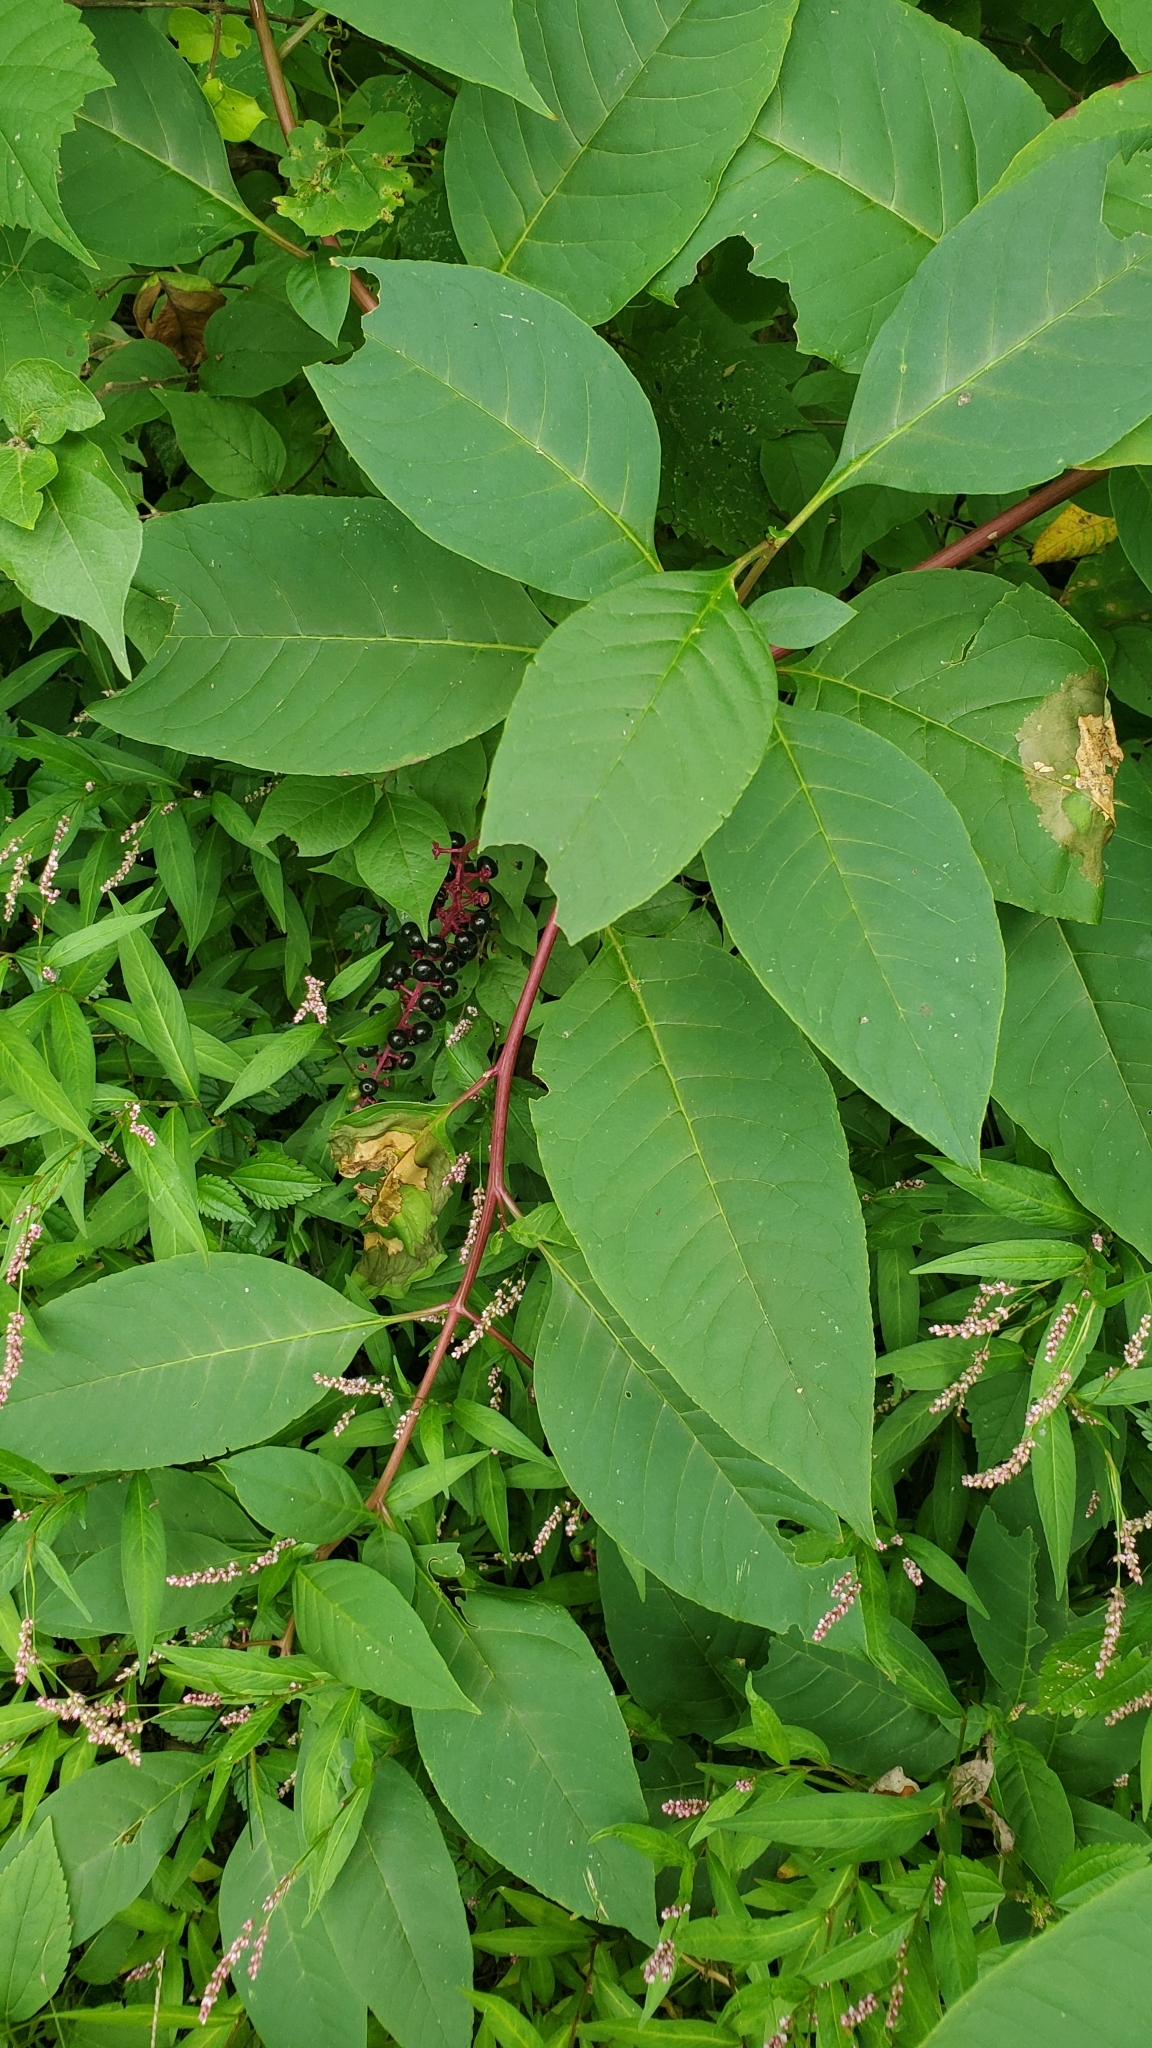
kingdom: Plantae
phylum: Tracheophyta
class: Magnoliopsida
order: Caryophyllales
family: Phytolaccaceae
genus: Phytolacca
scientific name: Phytolacca americana
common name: American pokeweed
